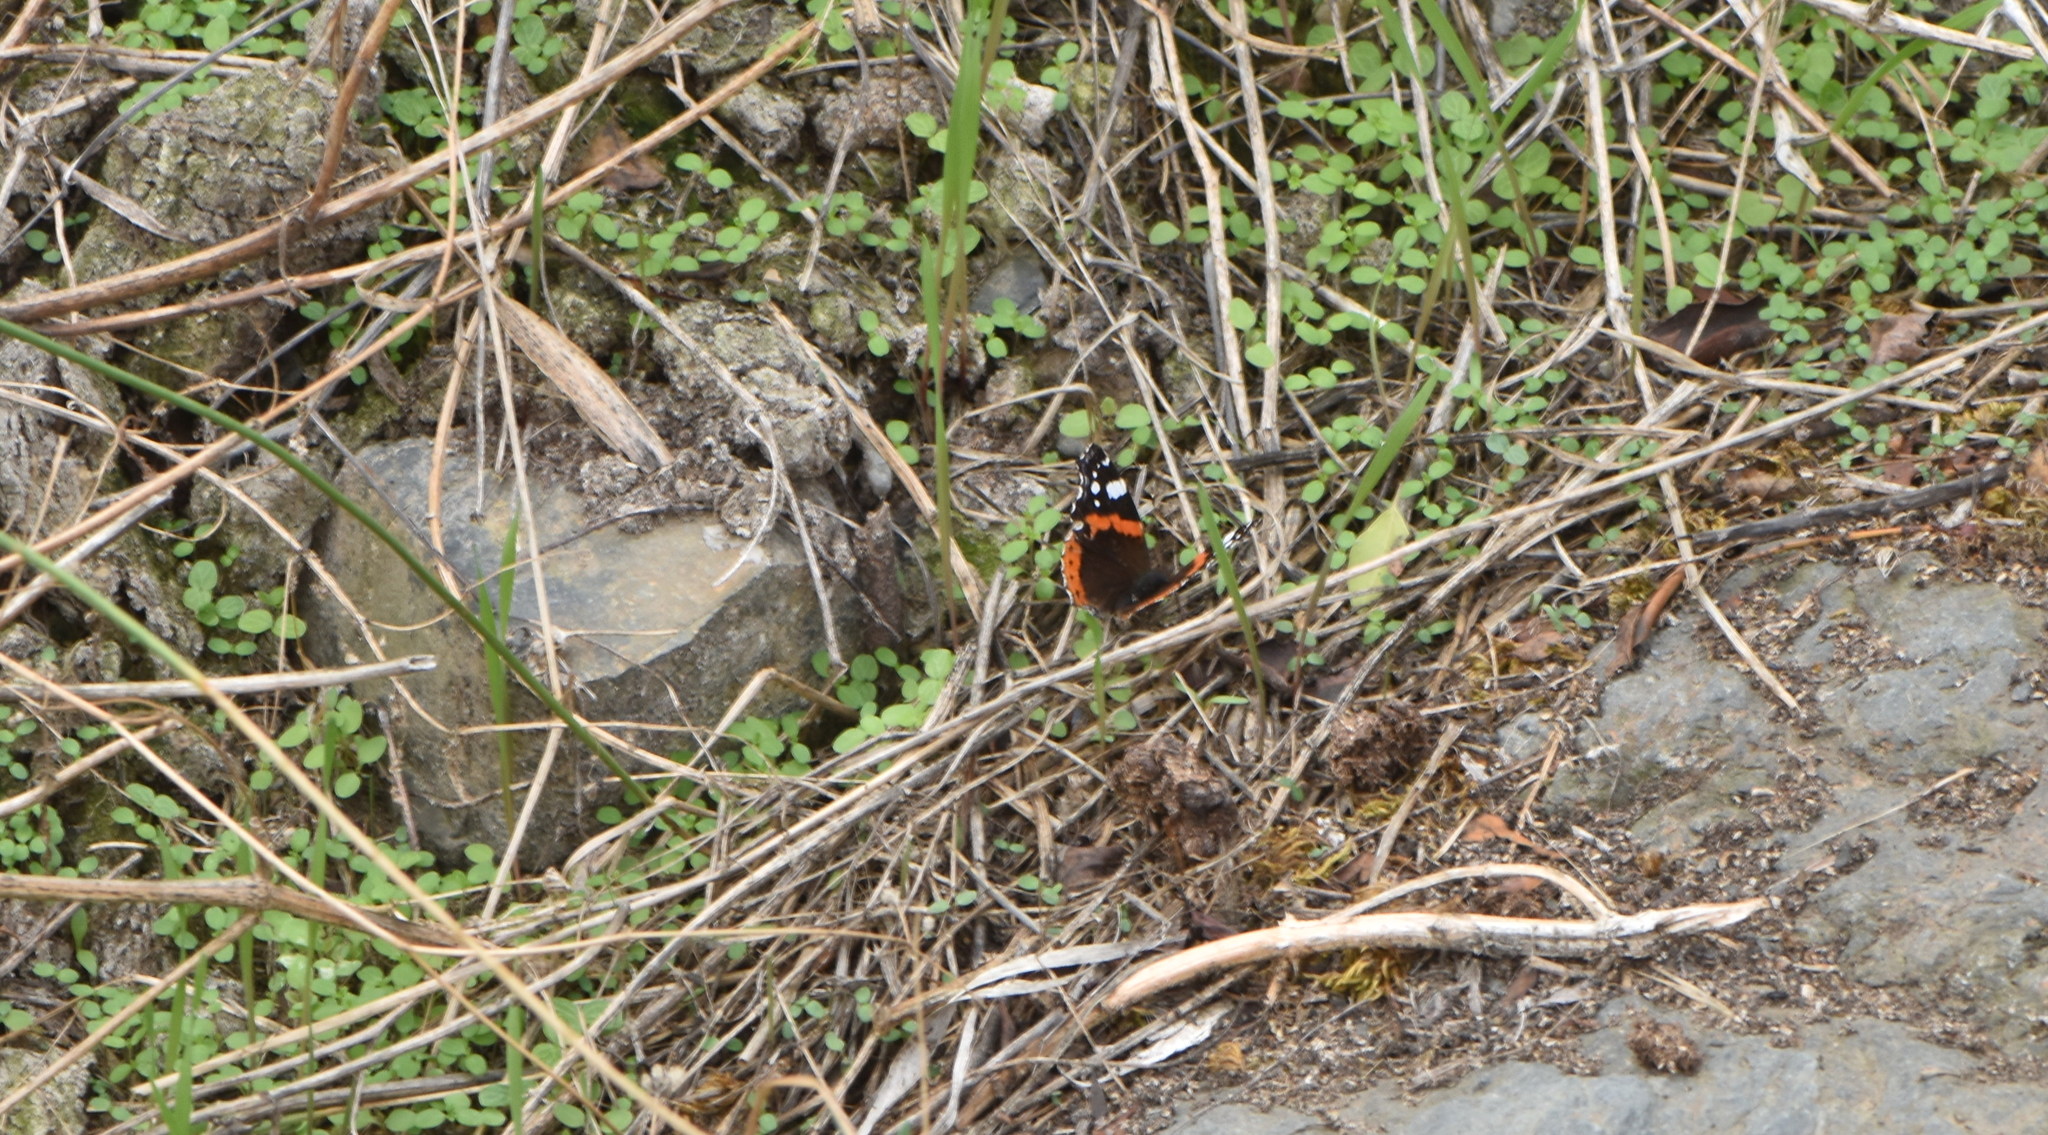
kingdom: Animalia
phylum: Arthropoda
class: Insecta
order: Lepidoptera
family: Nymphalidae
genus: Vanessa
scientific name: Vanessa atalanta
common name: Red admiral
